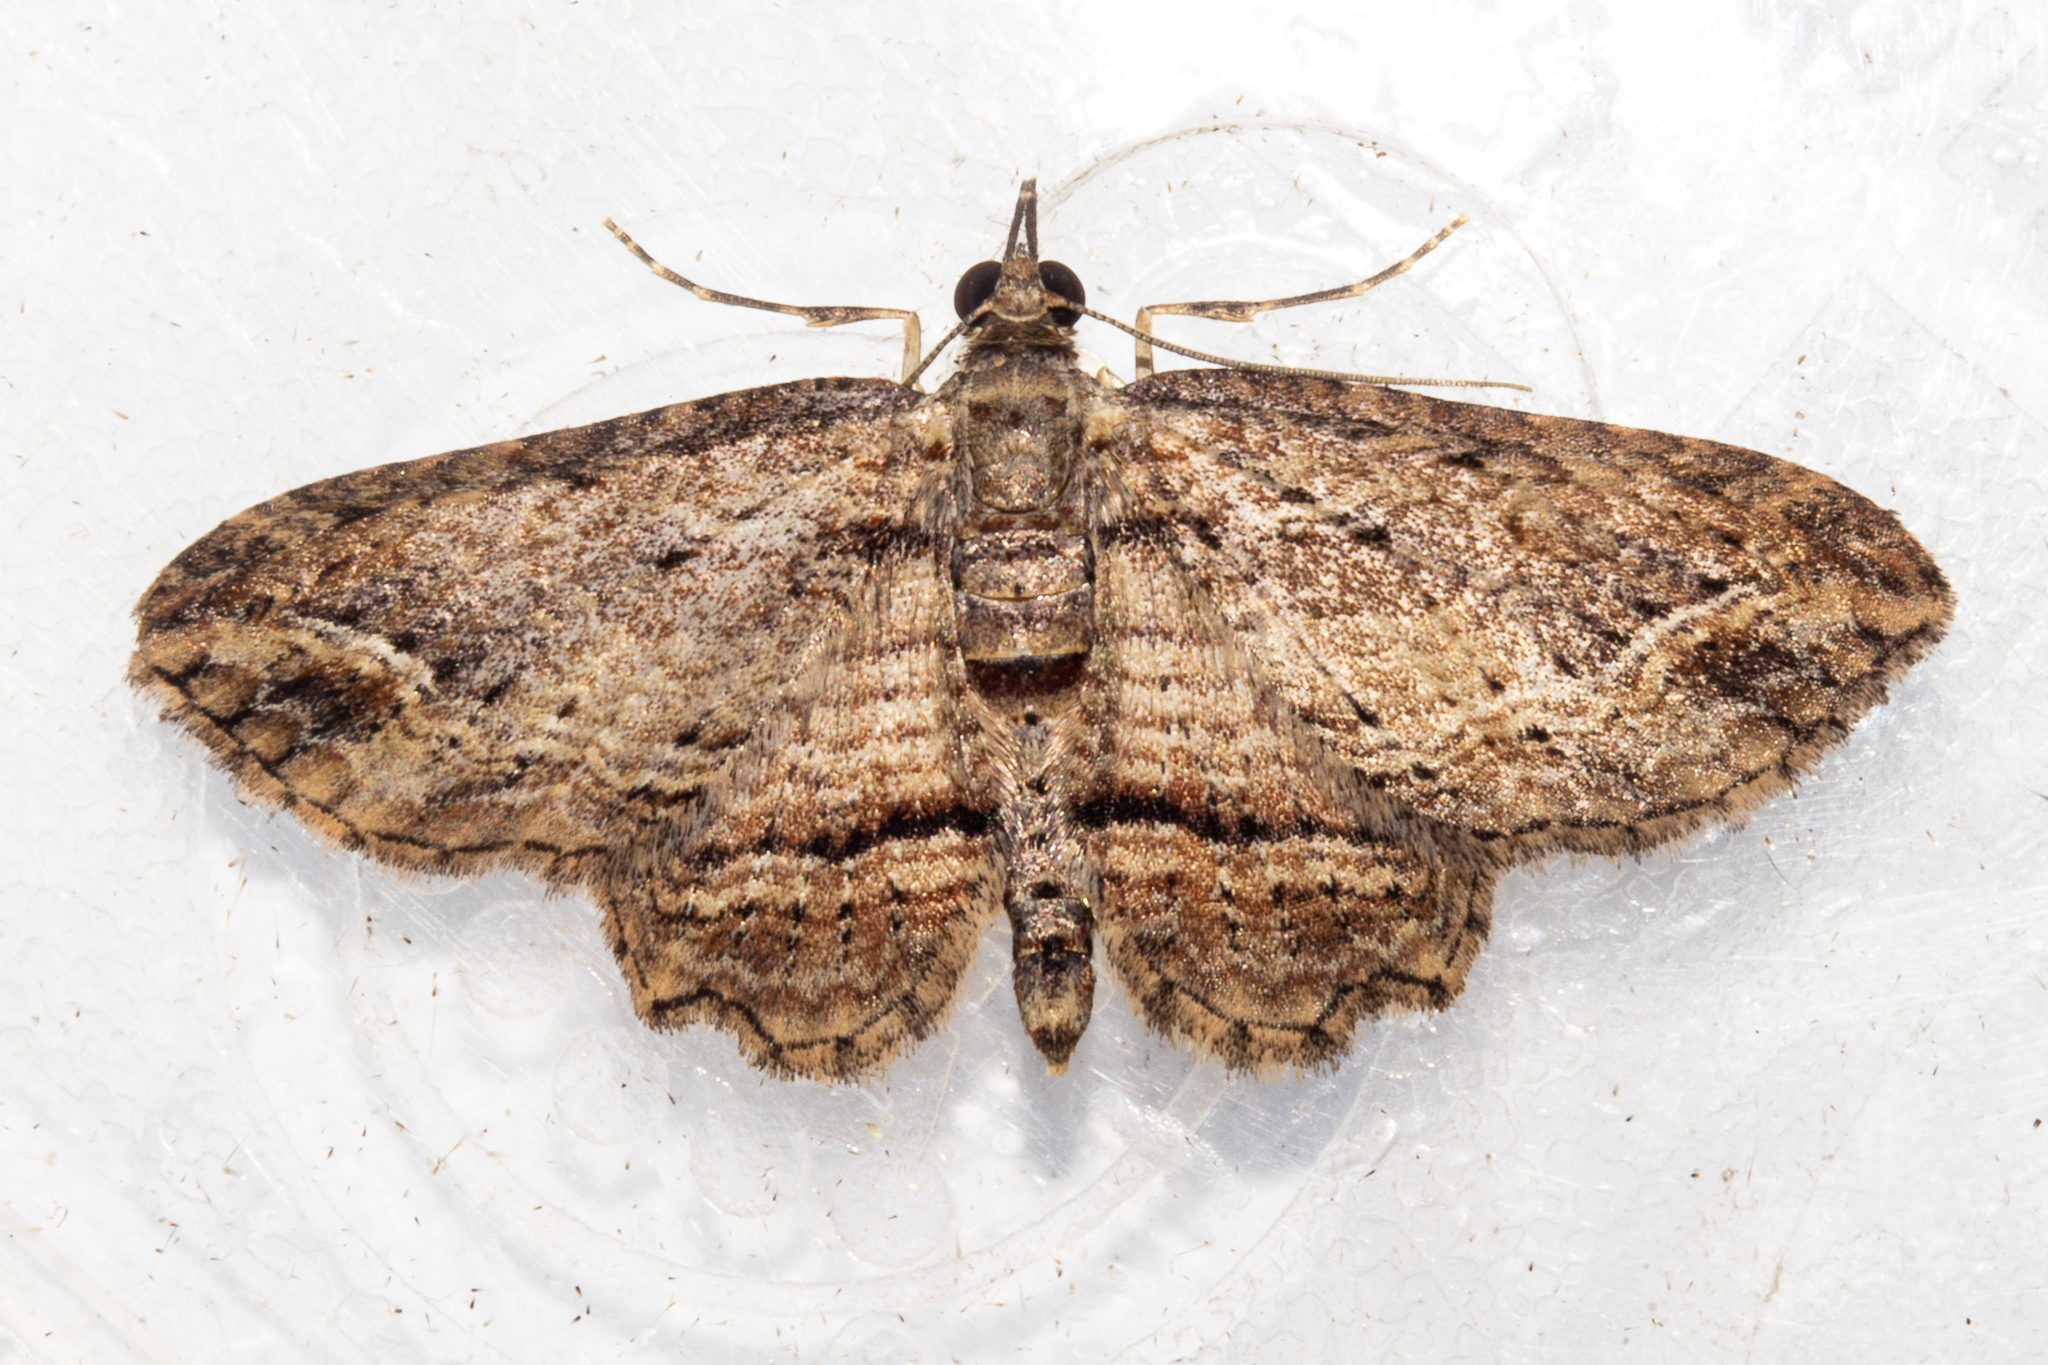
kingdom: Animalia
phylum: Arthropoda
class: Insecta
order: Lepidoptera
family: Geometridae
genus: Chloroclystis
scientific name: Chloroclystis filata
